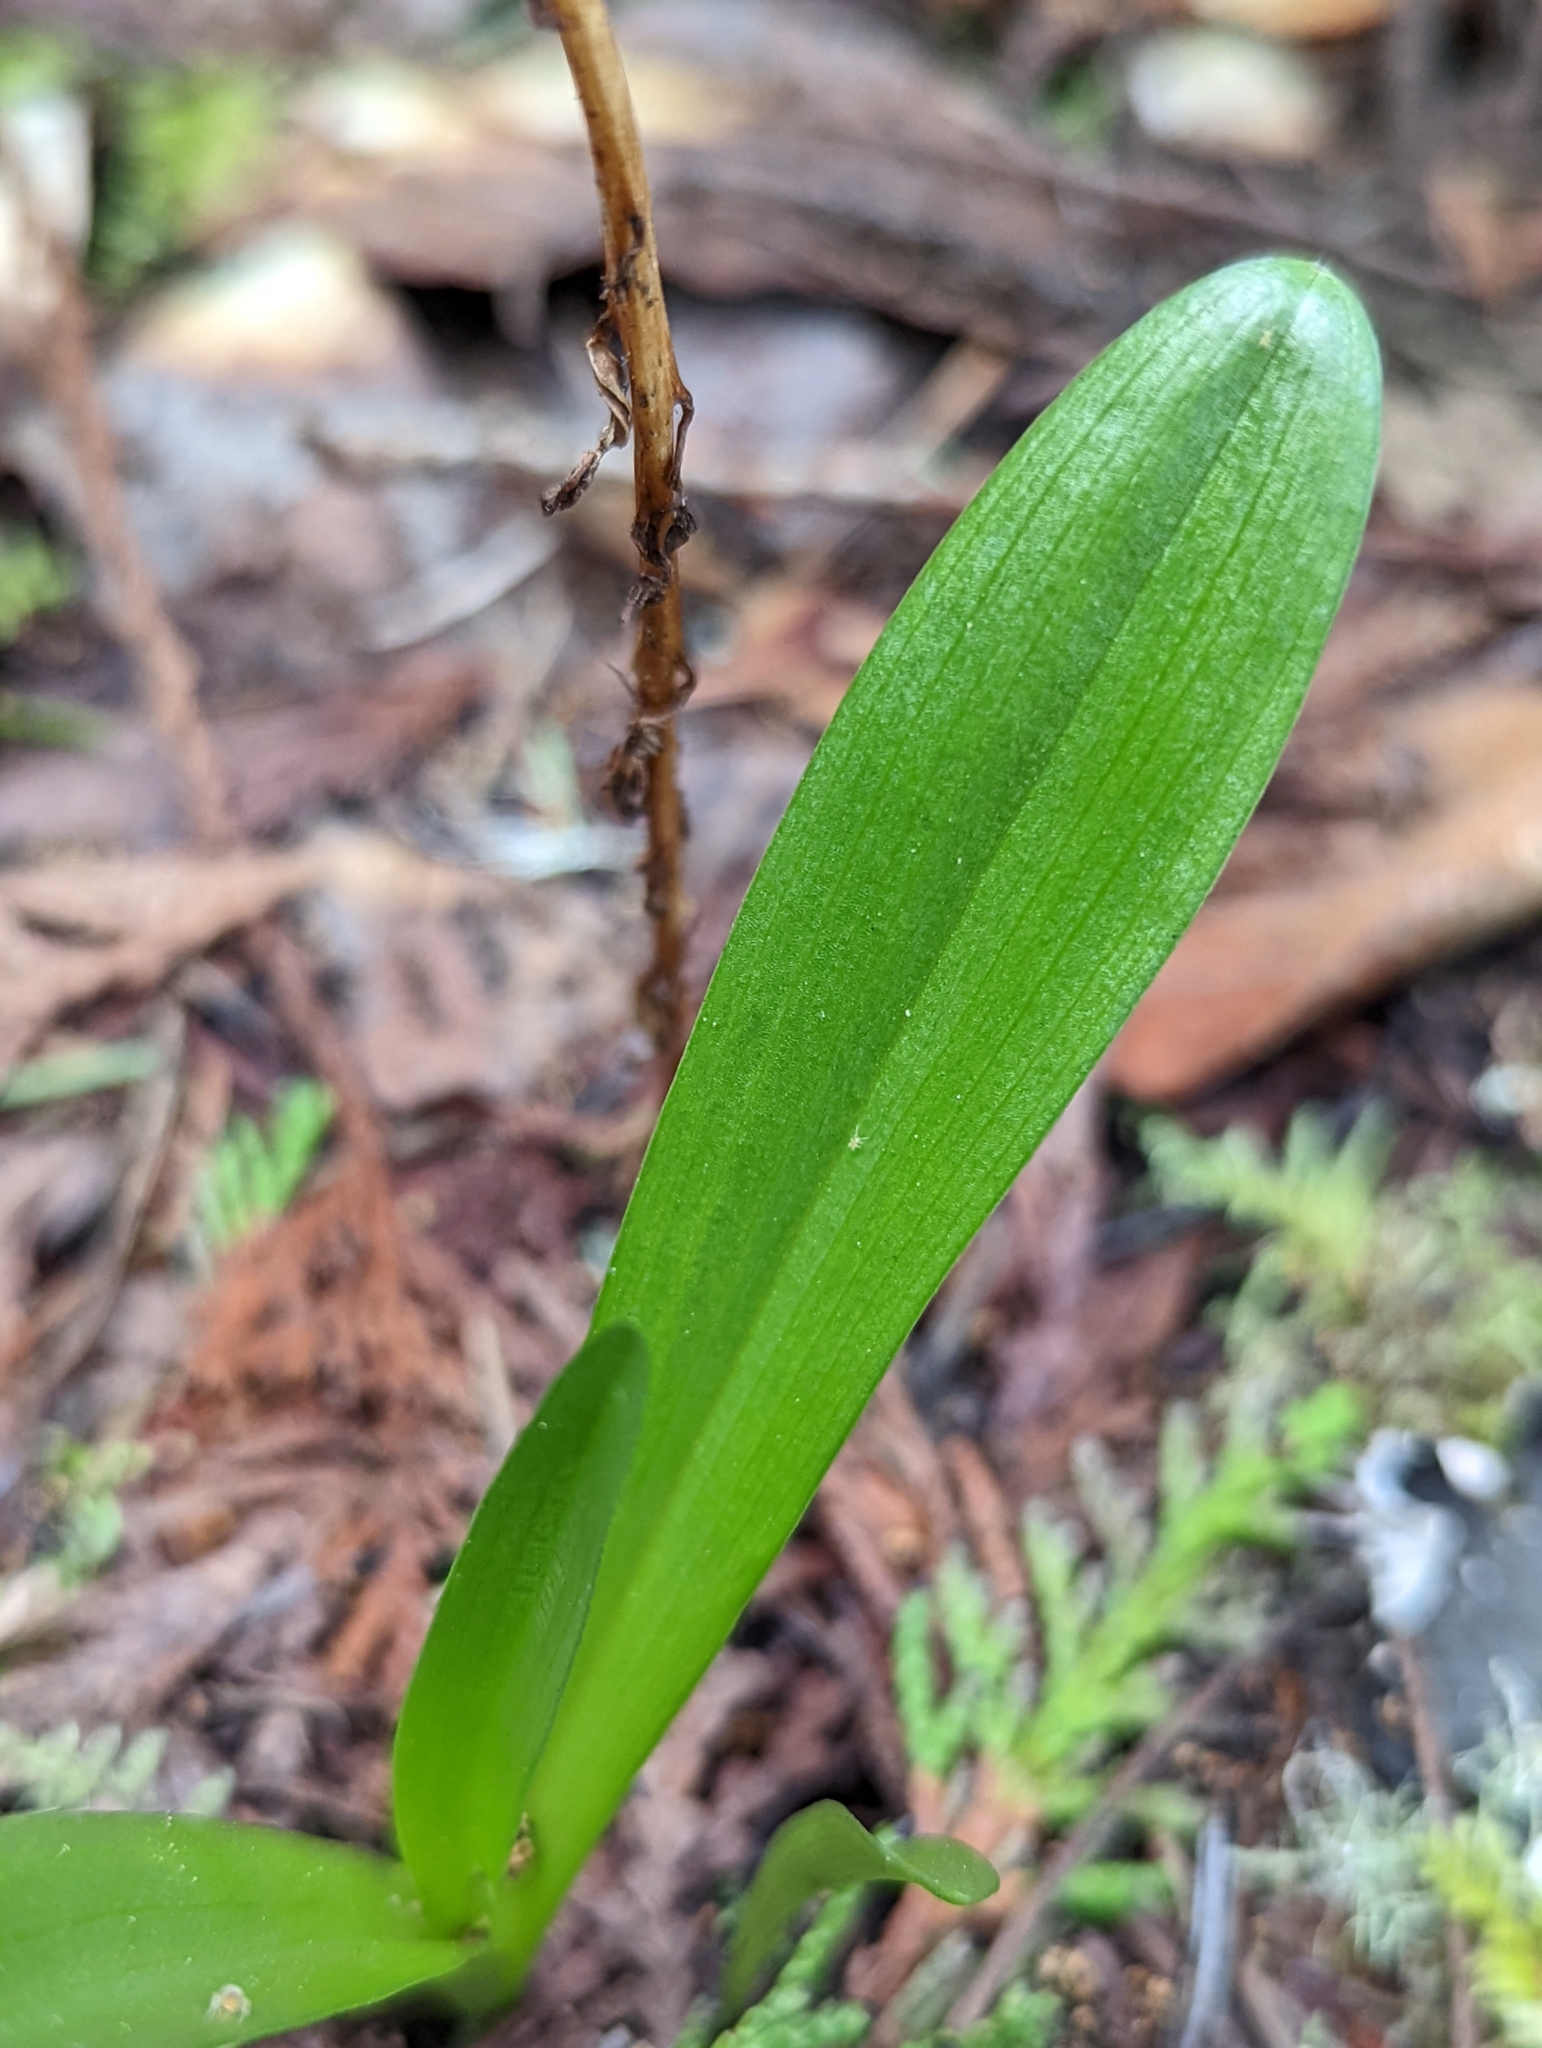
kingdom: Plantae
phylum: Tracheophyta
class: Liliopsida
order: Asparagales
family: Orchidaceae
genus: Platanthera
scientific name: Platanthera unalascensis
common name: Alaska bog orchid
